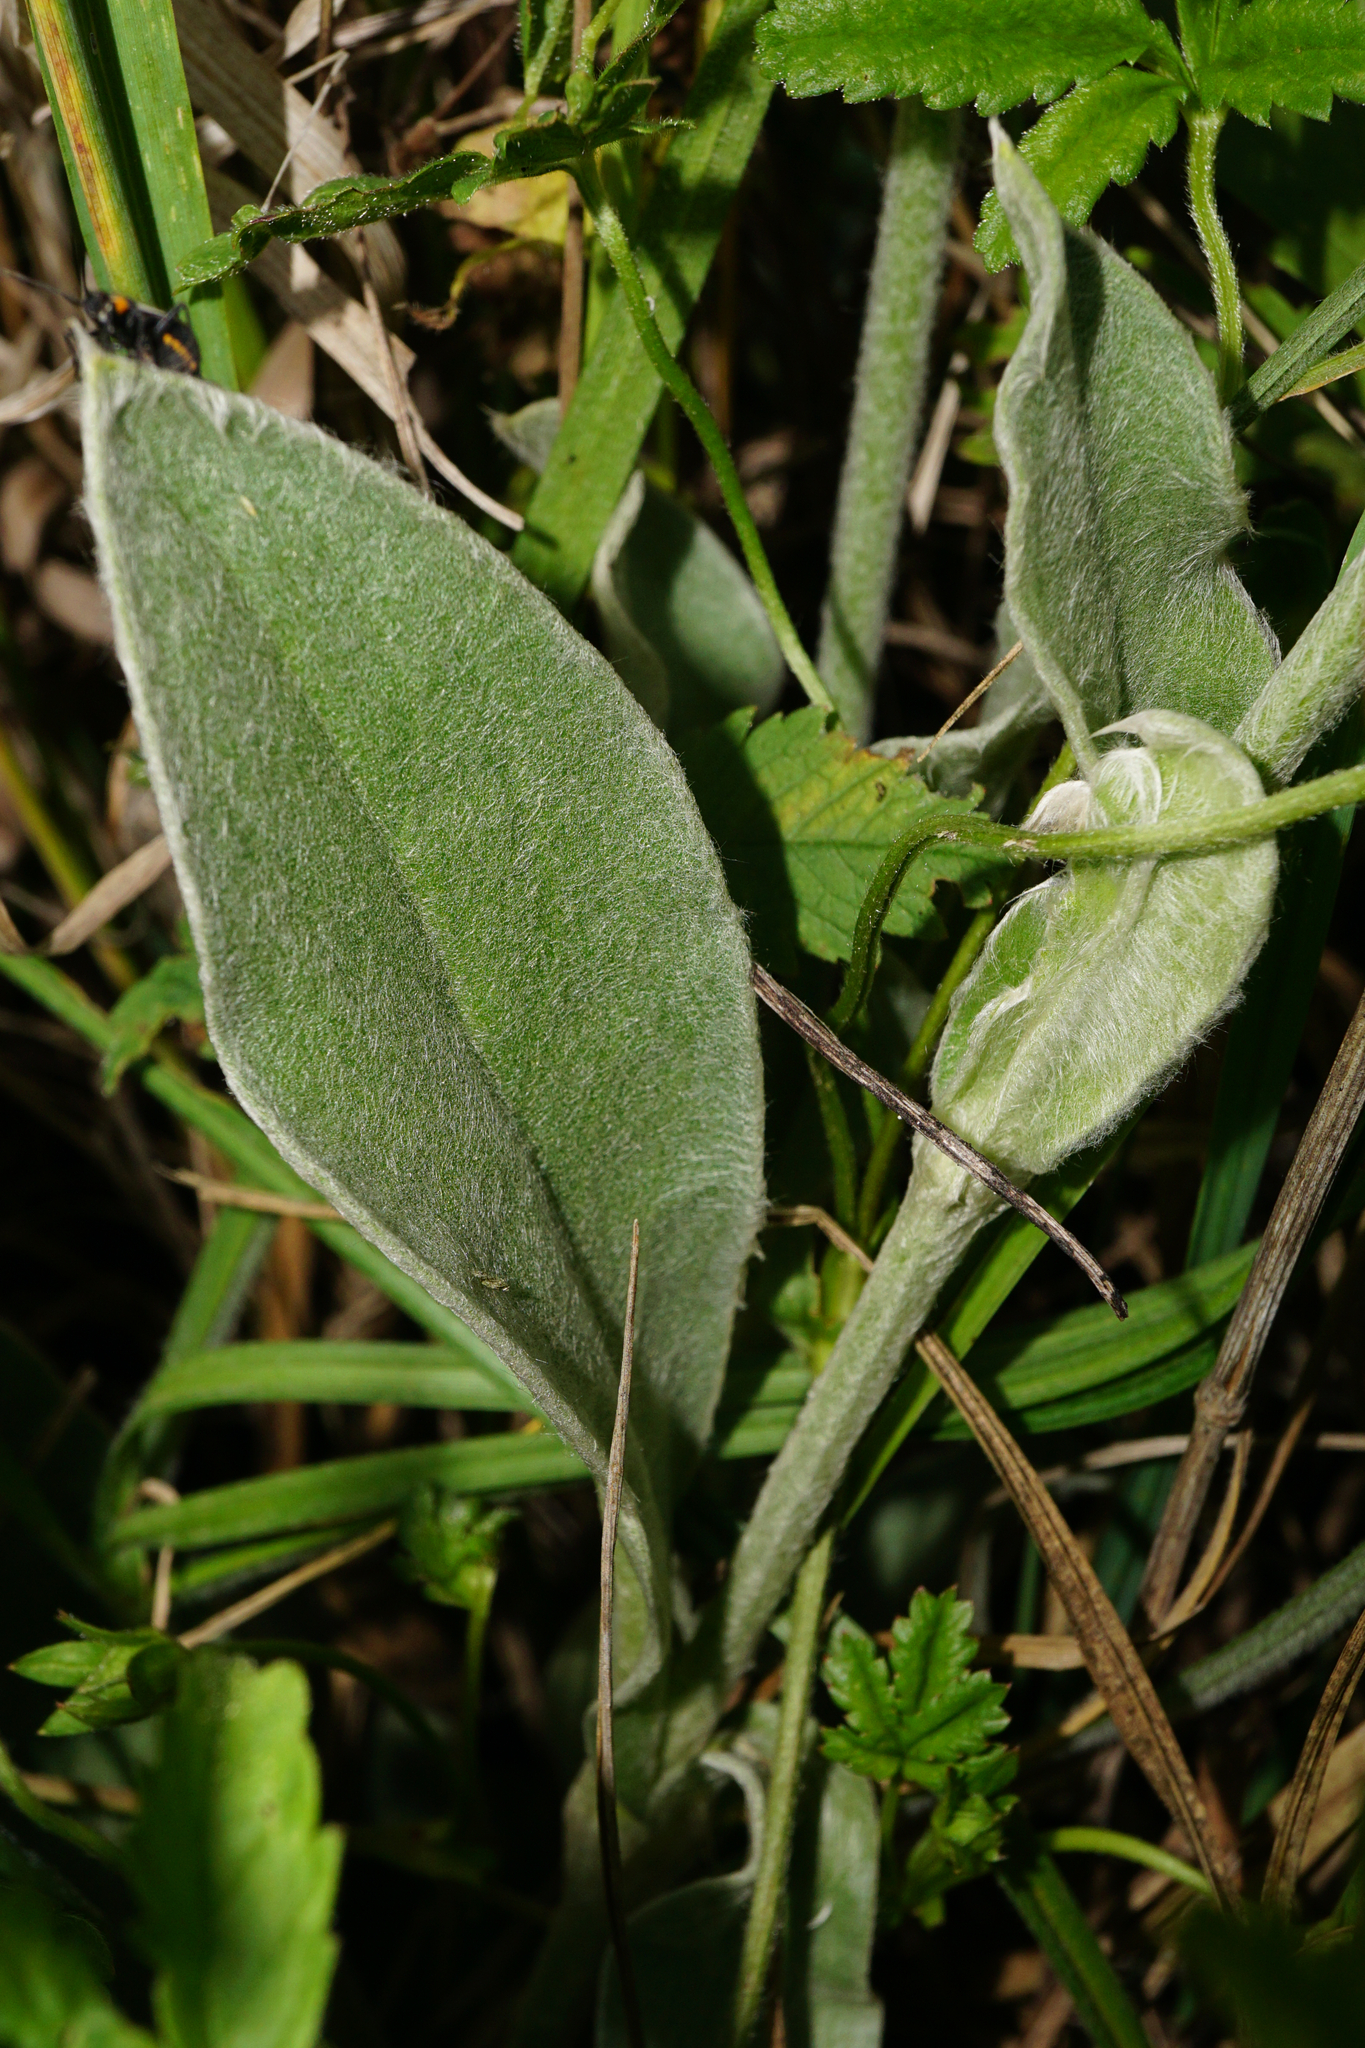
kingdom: Plantae
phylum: Tracheophyta
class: Magnoliopsida
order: Caryophyllales
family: Caryophyllaceae
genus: Silene
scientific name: Silene coronaria
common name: Rose campion
